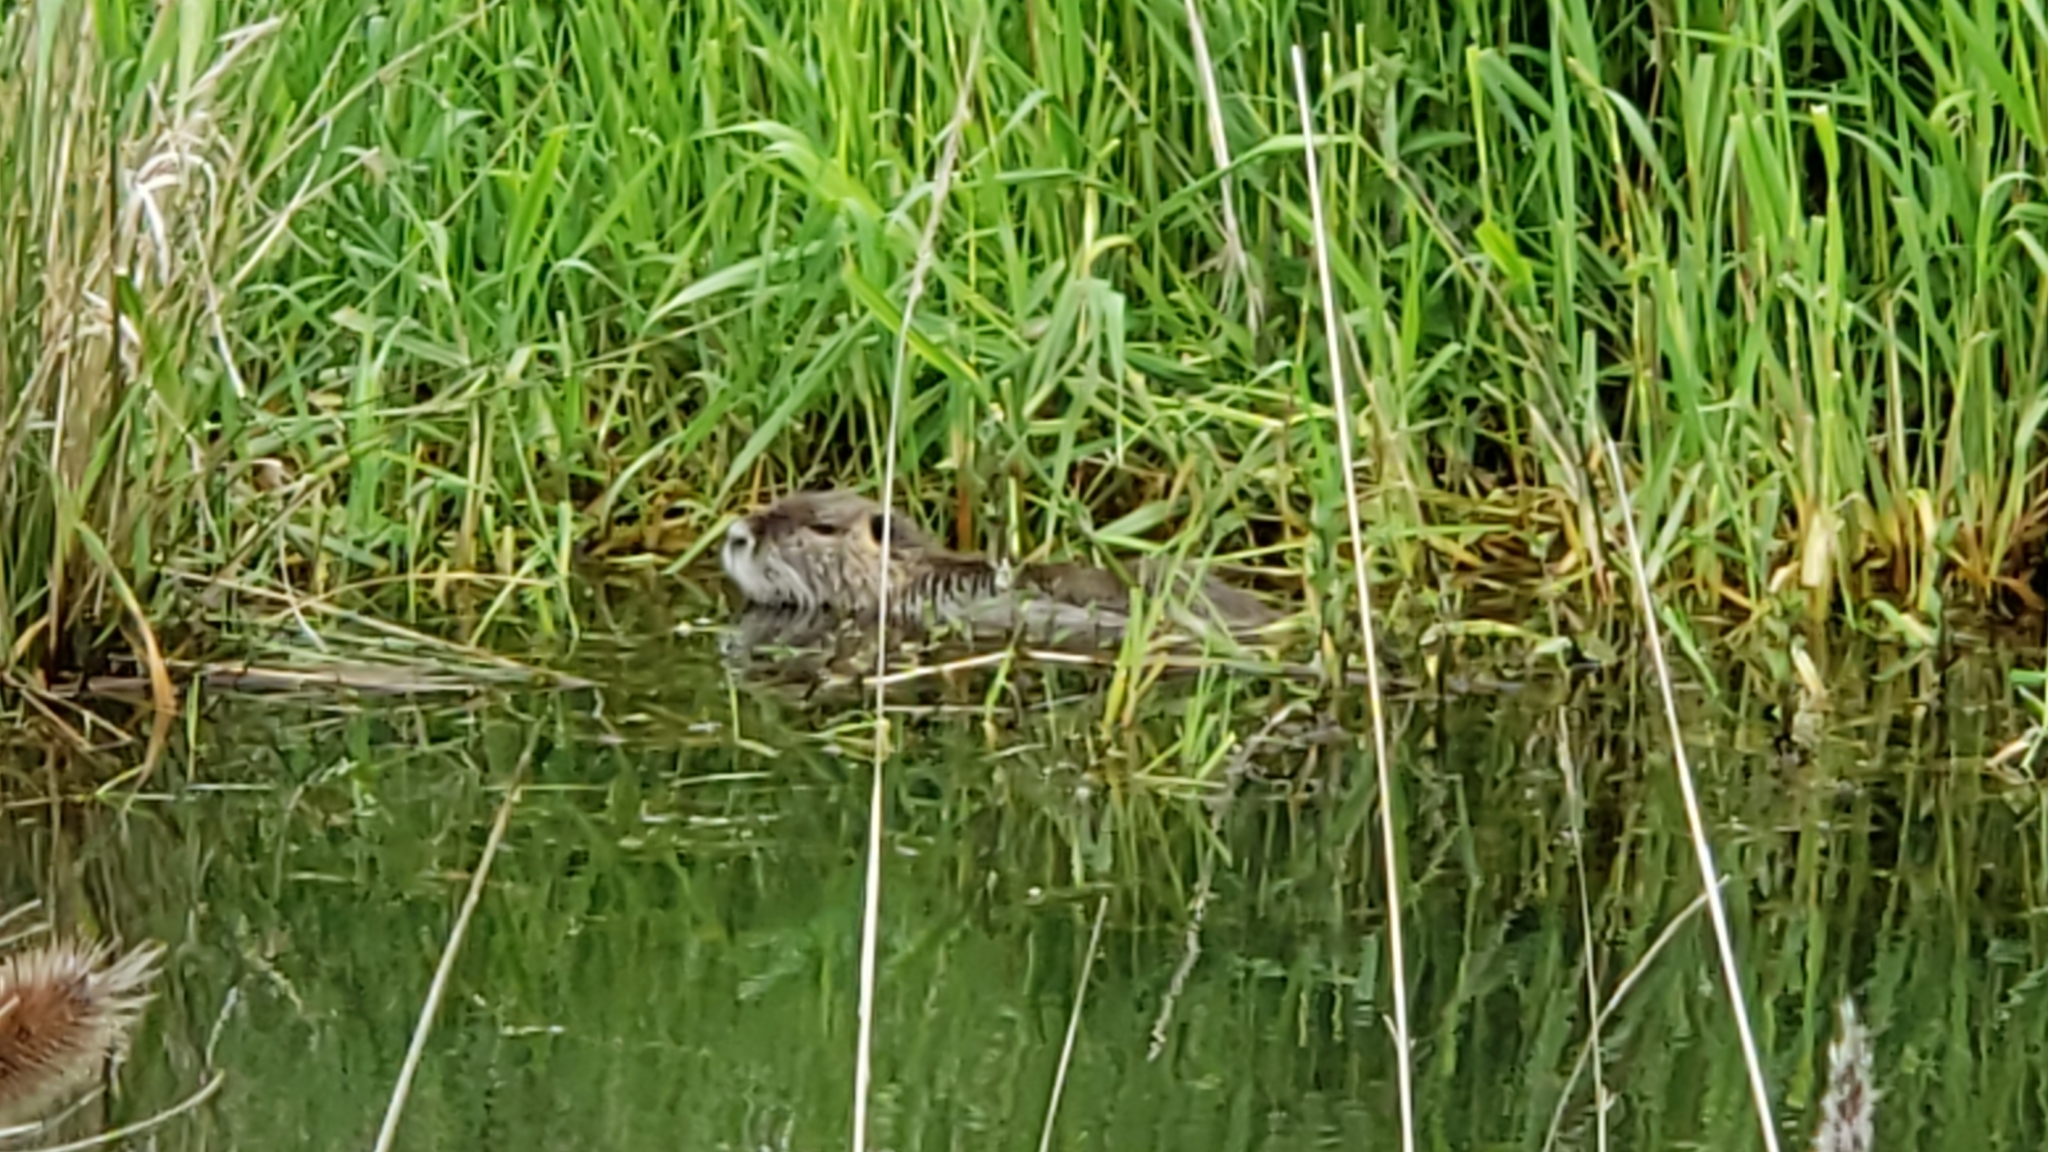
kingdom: Animalia
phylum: Chordata
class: Mammalia
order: Rodentia
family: Myocastoridae
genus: Myocastor
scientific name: Myocastor coypus
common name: Coypu
